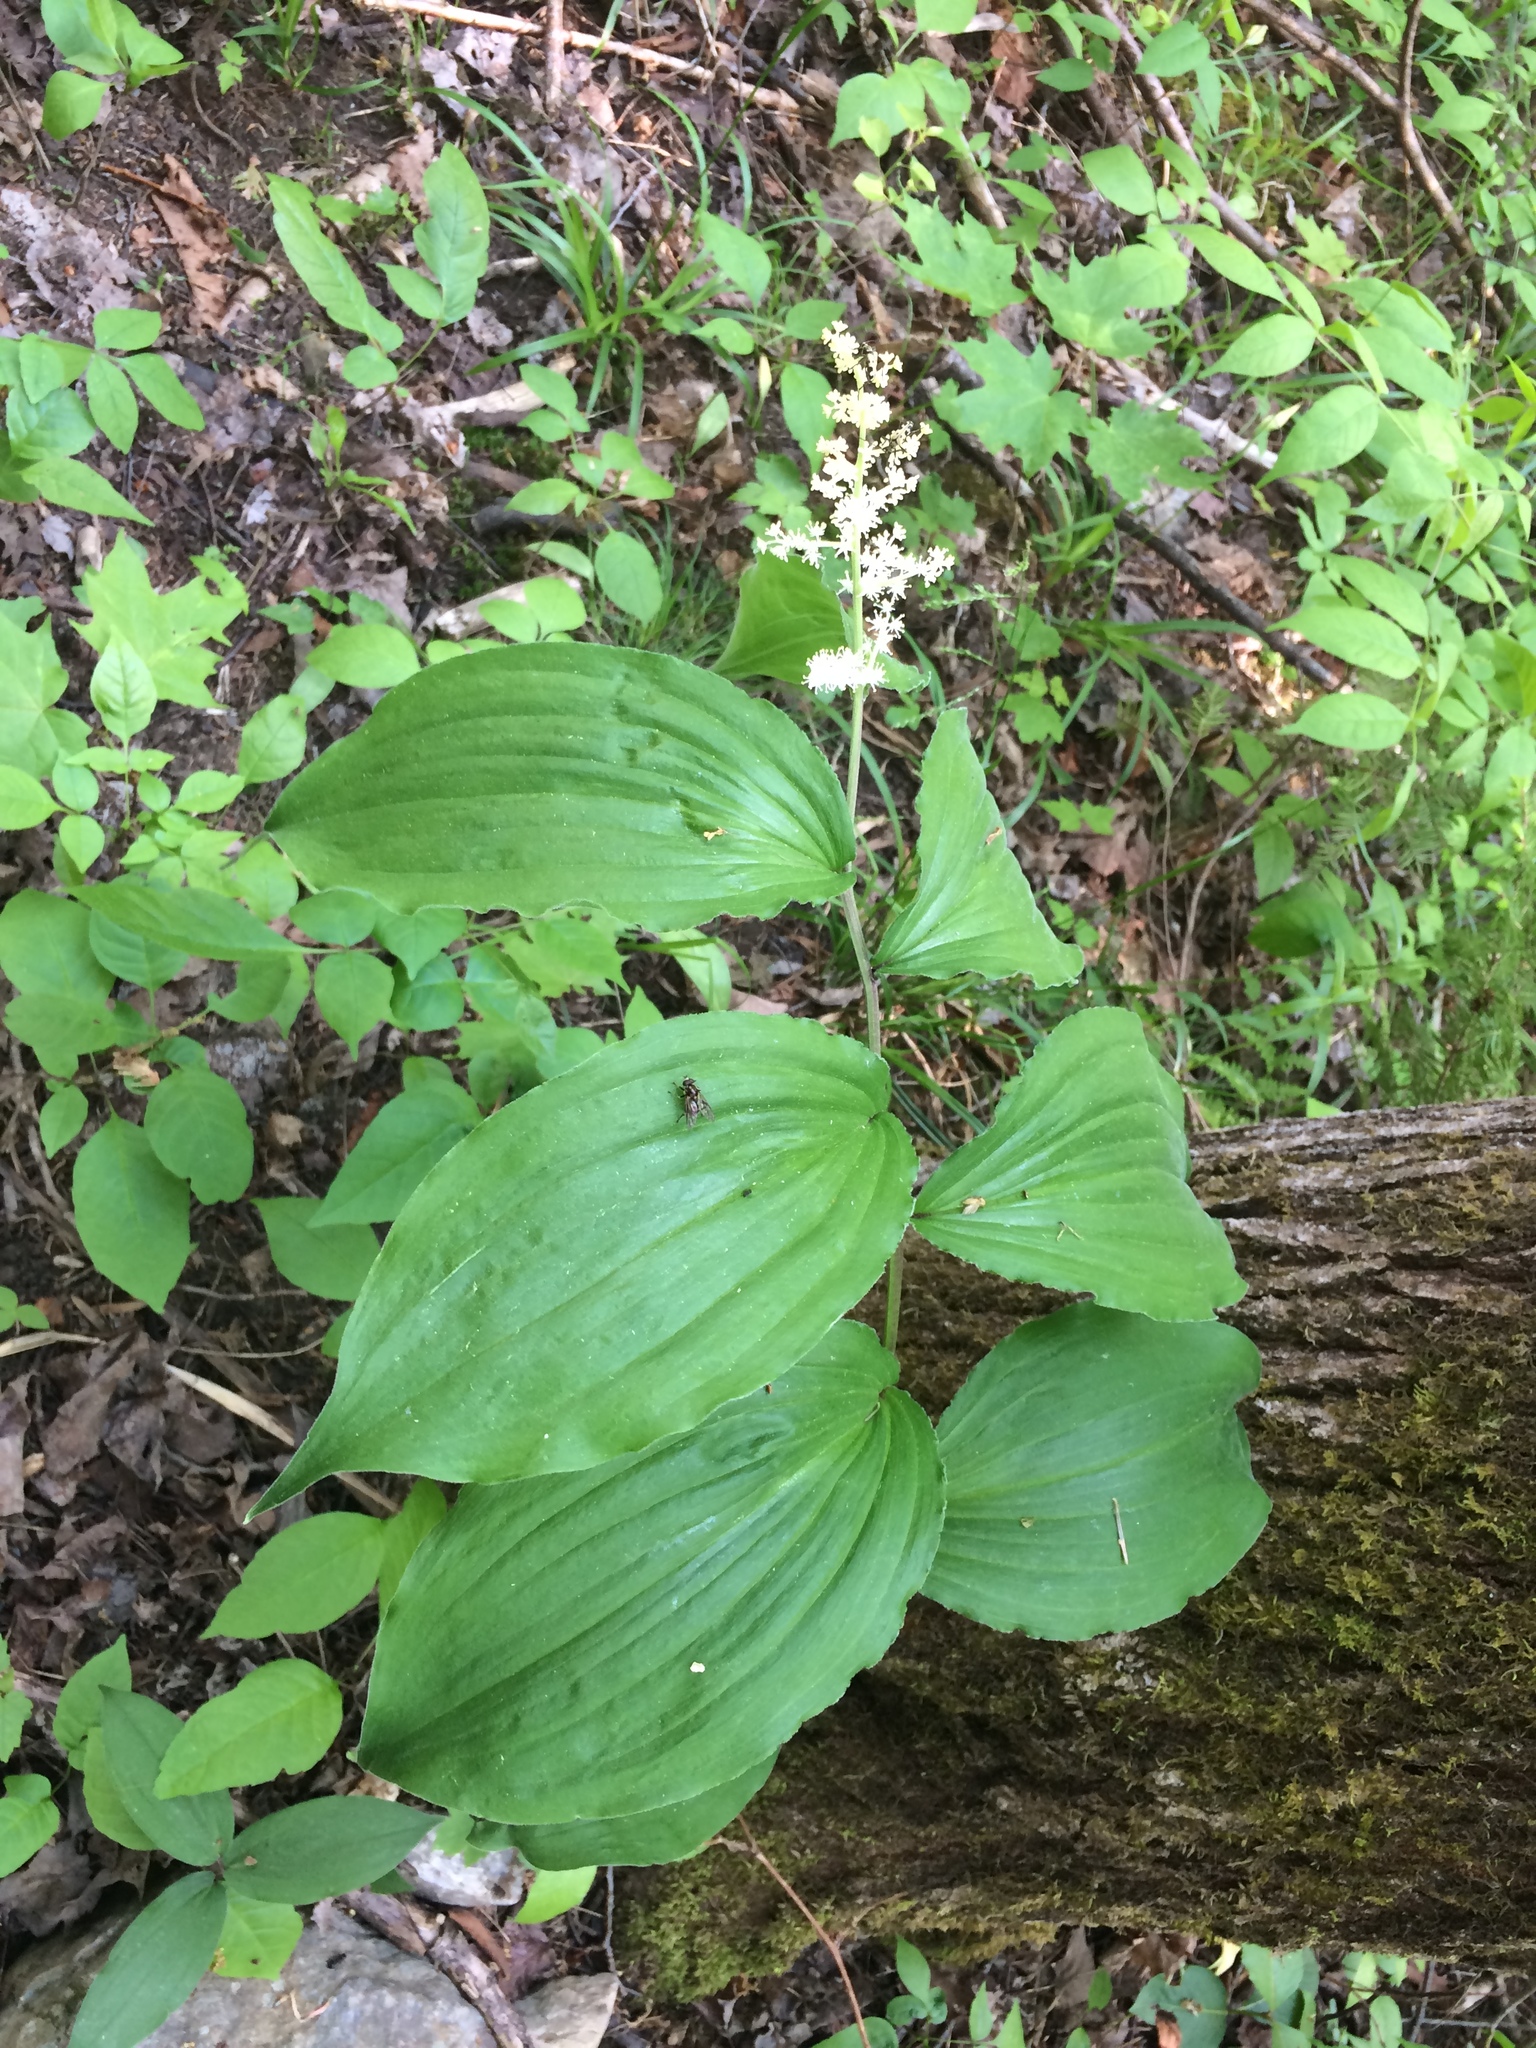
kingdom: Plantae
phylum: Tracheophyta
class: Liliopsida
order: Asparagales
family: Asparagaceae
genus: Maianthemum
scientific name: Maianthemum racemosum
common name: False spikenard
